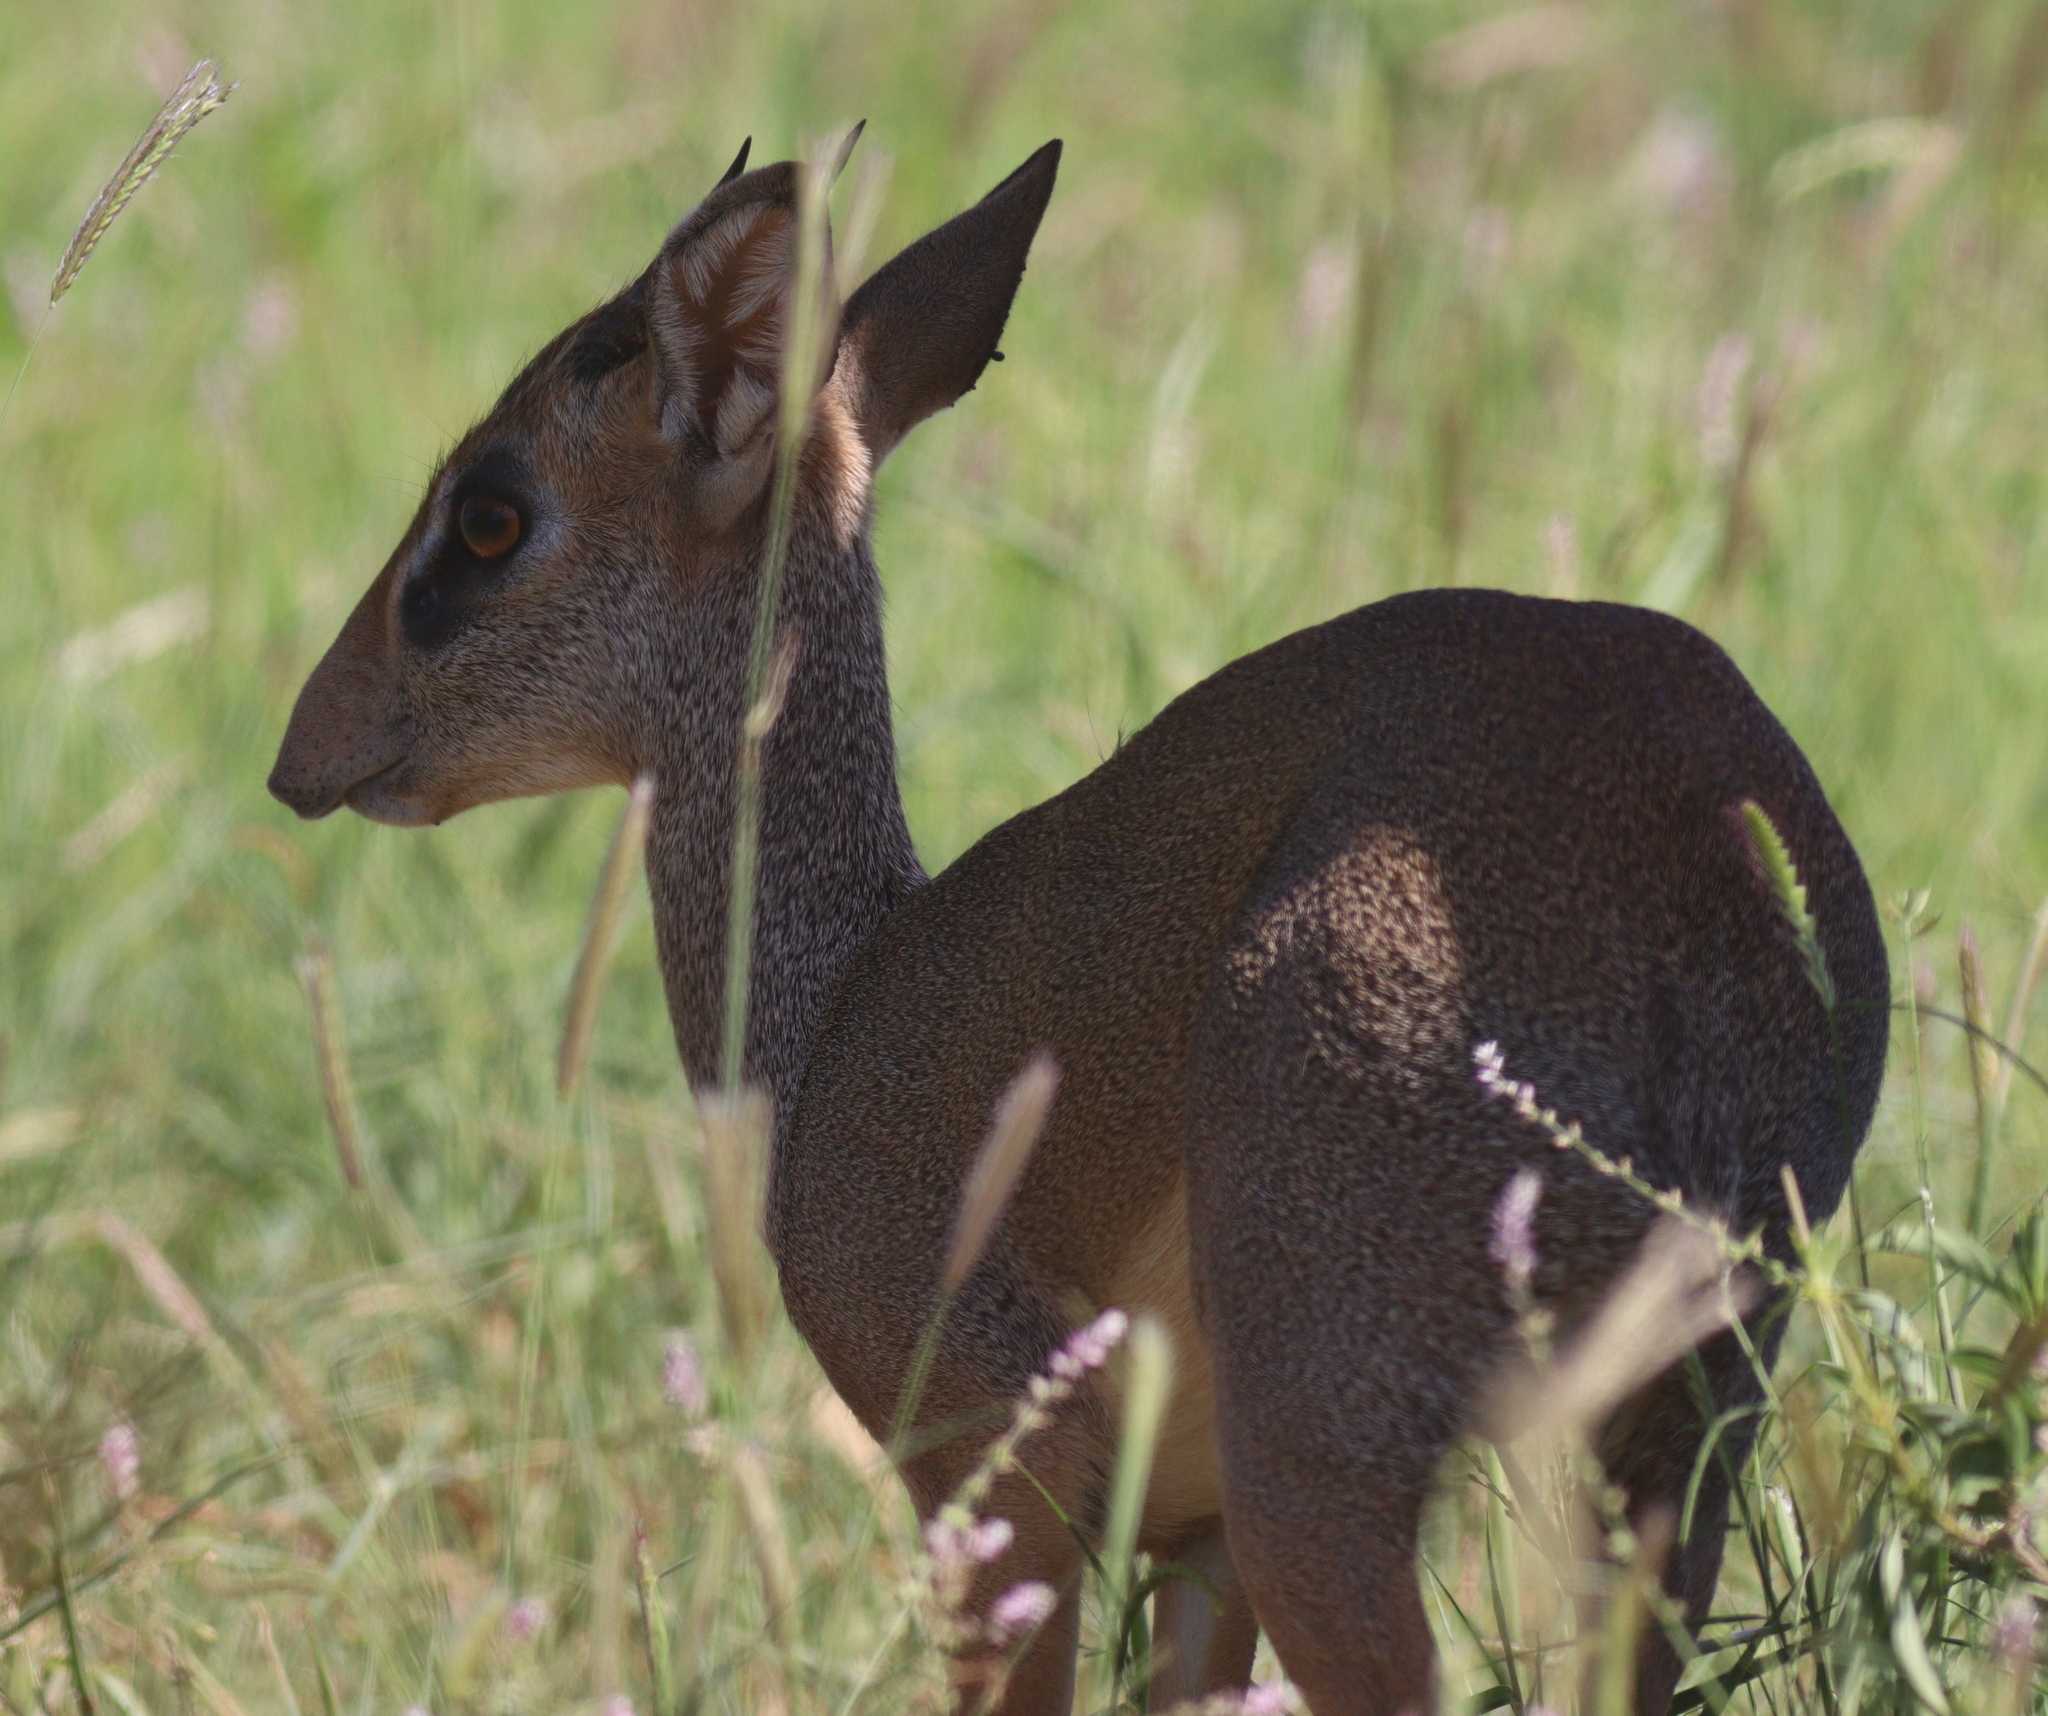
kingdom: Animalia
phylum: Chordata
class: Mammalia
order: Artiodactyla
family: Bovidae
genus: Madoqua
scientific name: Madoqua
